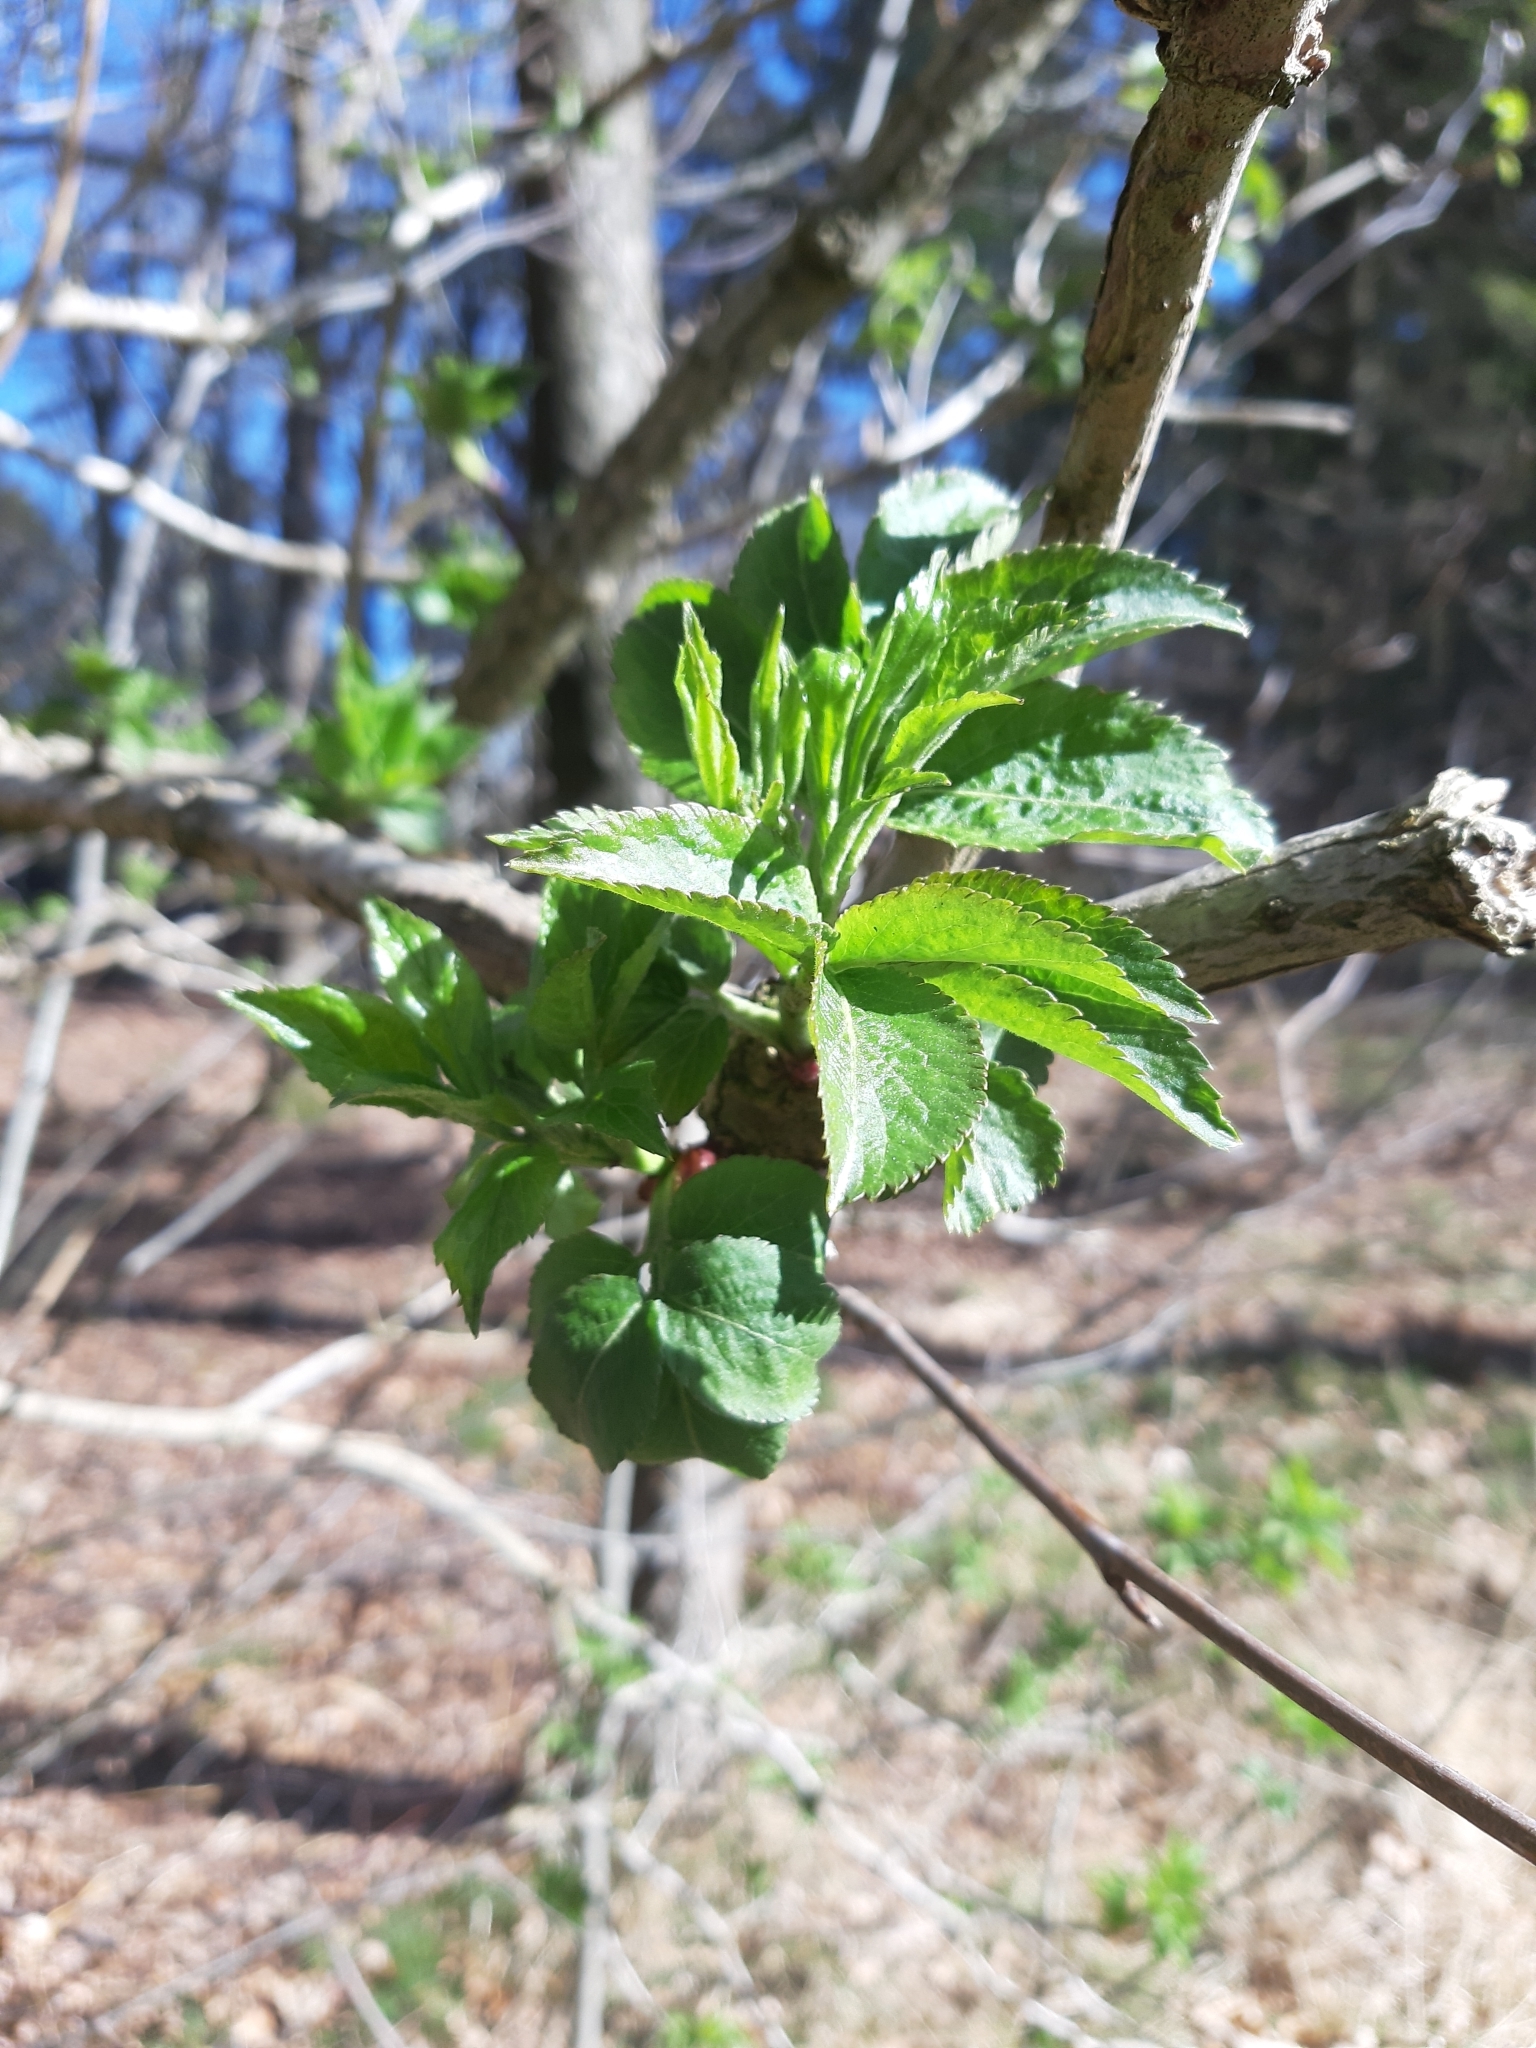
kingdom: Plantae
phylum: Tracheophyta
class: Magnoliopsida
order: Dipsacales
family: Viburnaceae
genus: Sambucus
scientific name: Sambucus nigra
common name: Elder
